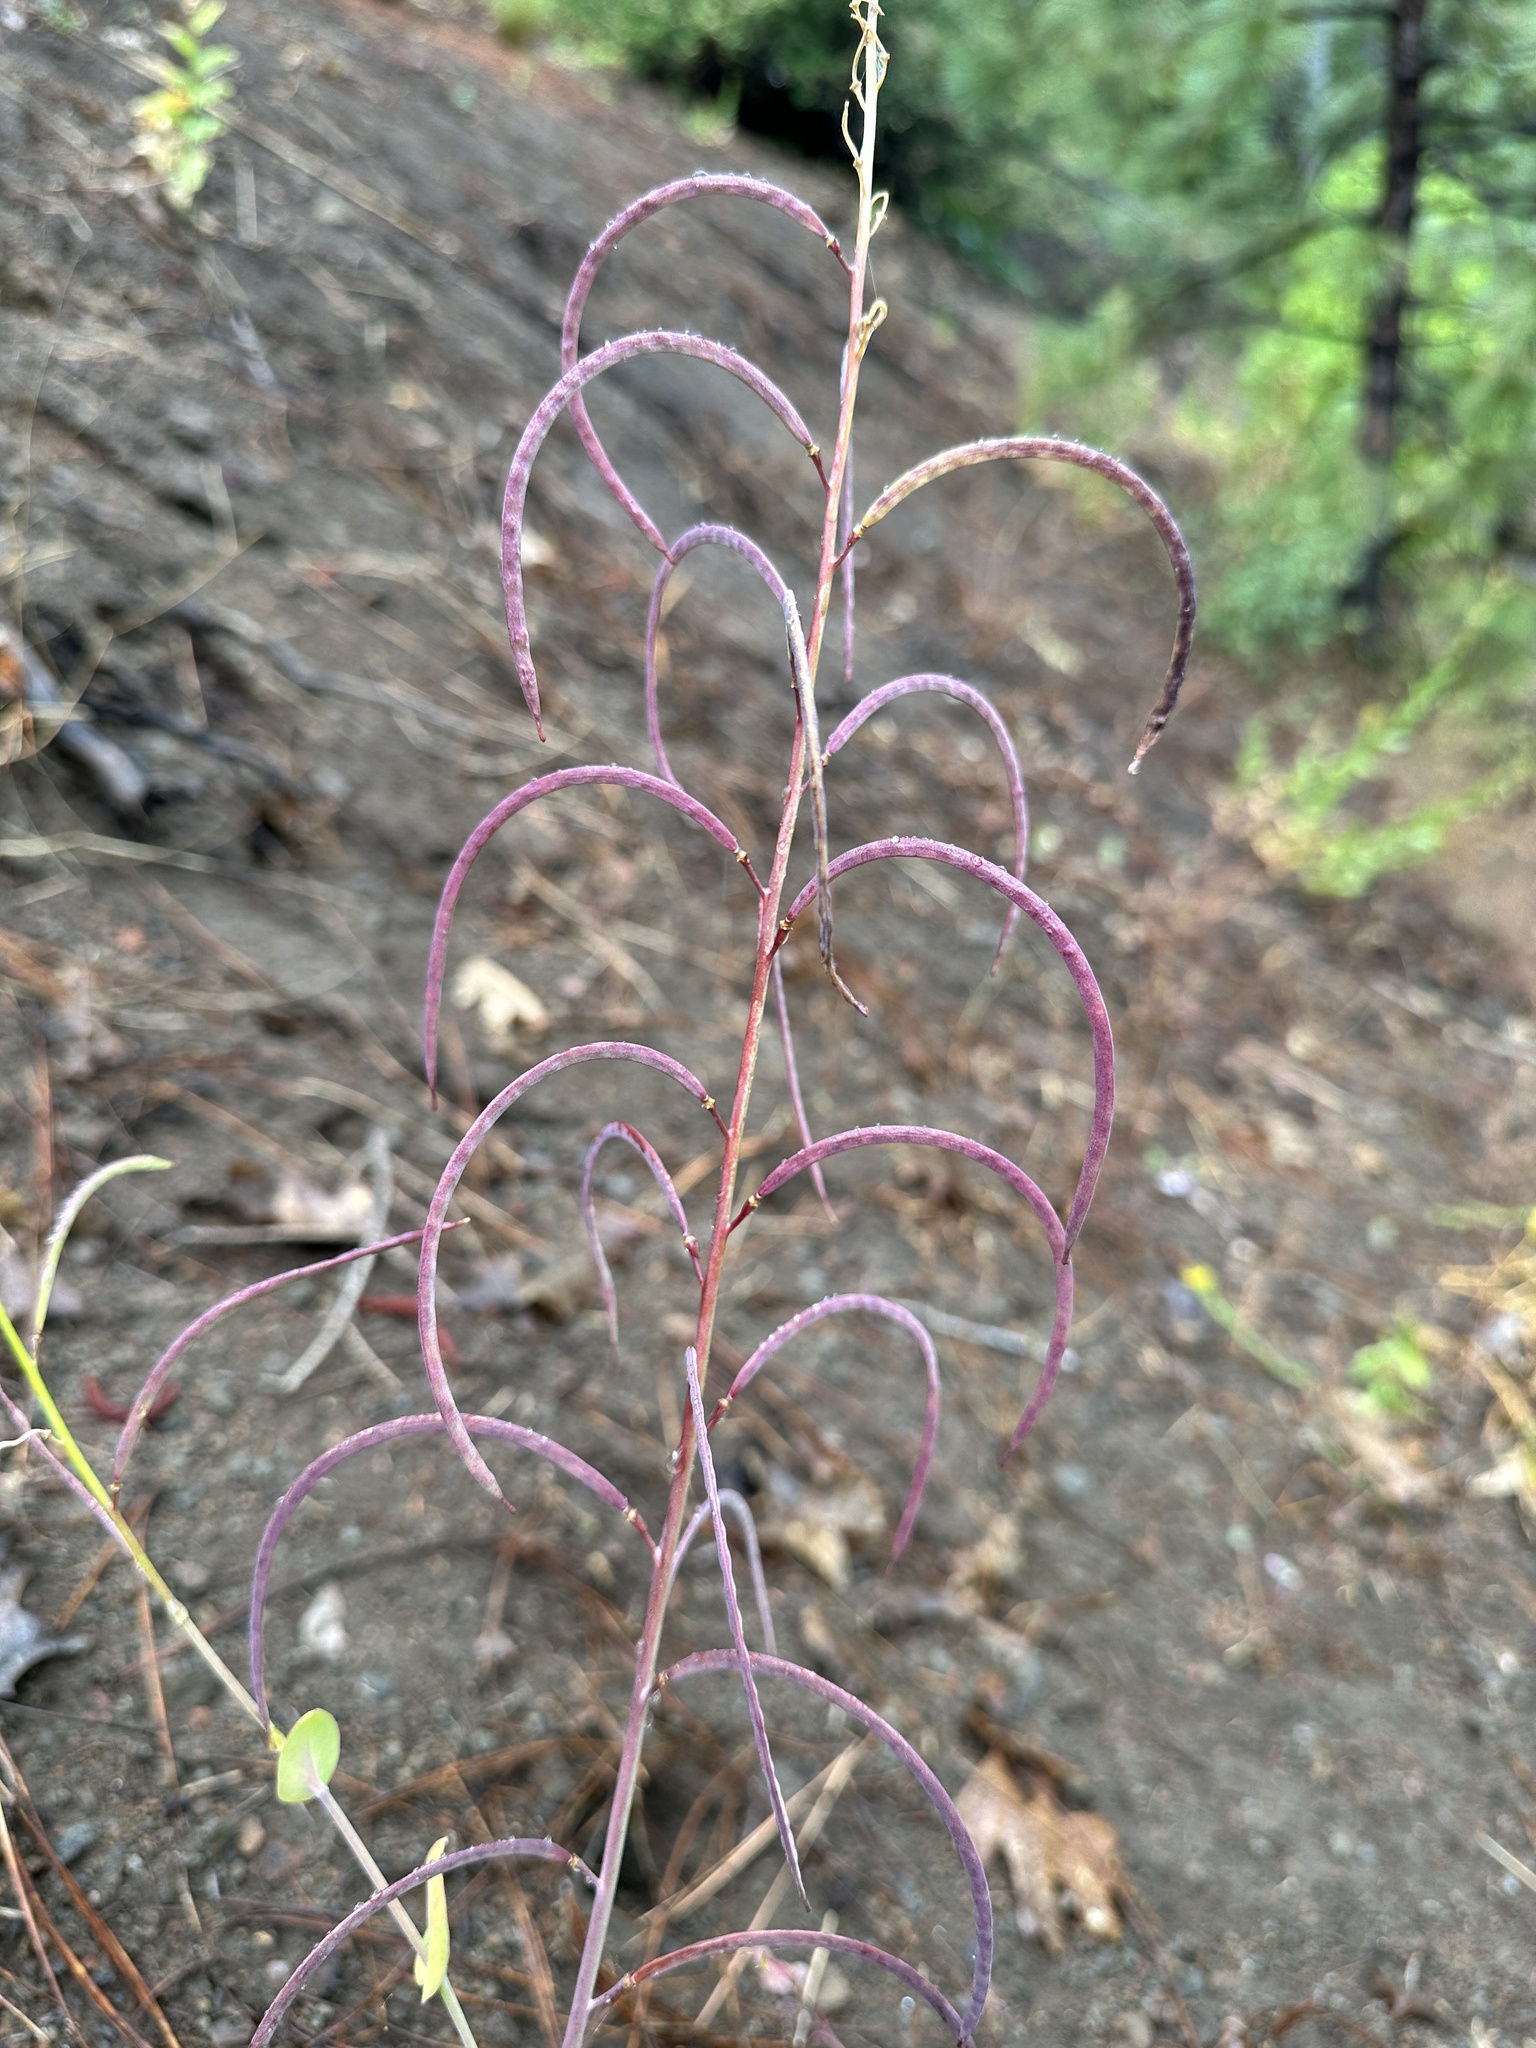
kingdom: Plantae
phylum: Tracheophyta
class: Magnoliopsida
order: Brassicales
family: Brassicaceae
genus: Streptanthus
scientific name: Streptanthus longisiliquus
